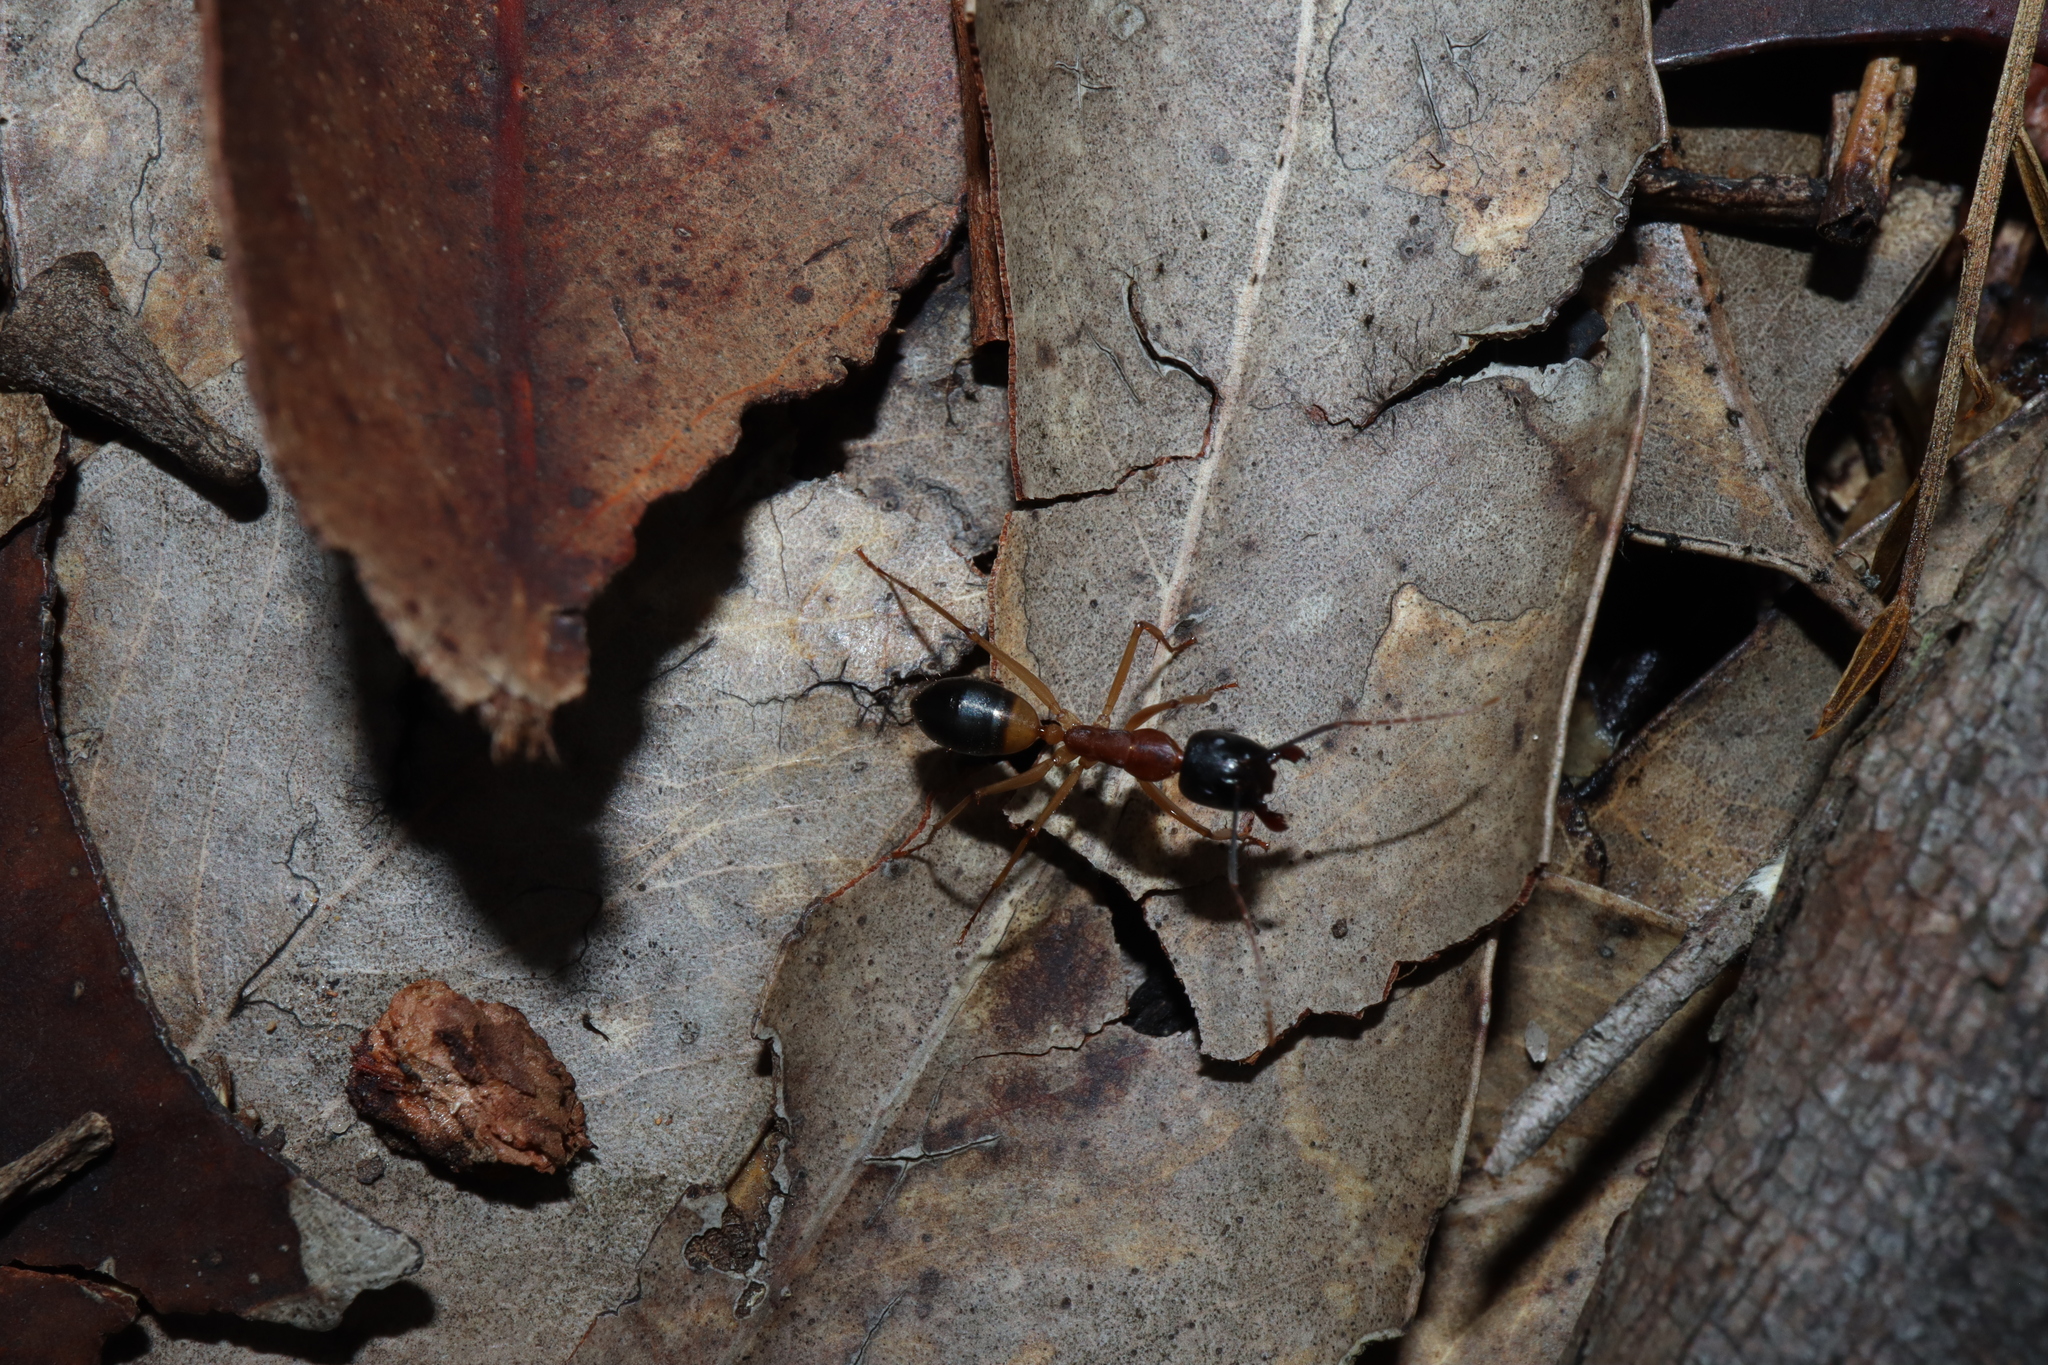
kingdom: Animalia
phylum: Arthropoda
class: Insecta
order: Hymenoptera
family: Formicidae
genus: Camponotus
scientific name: Camponotus consobrinus
